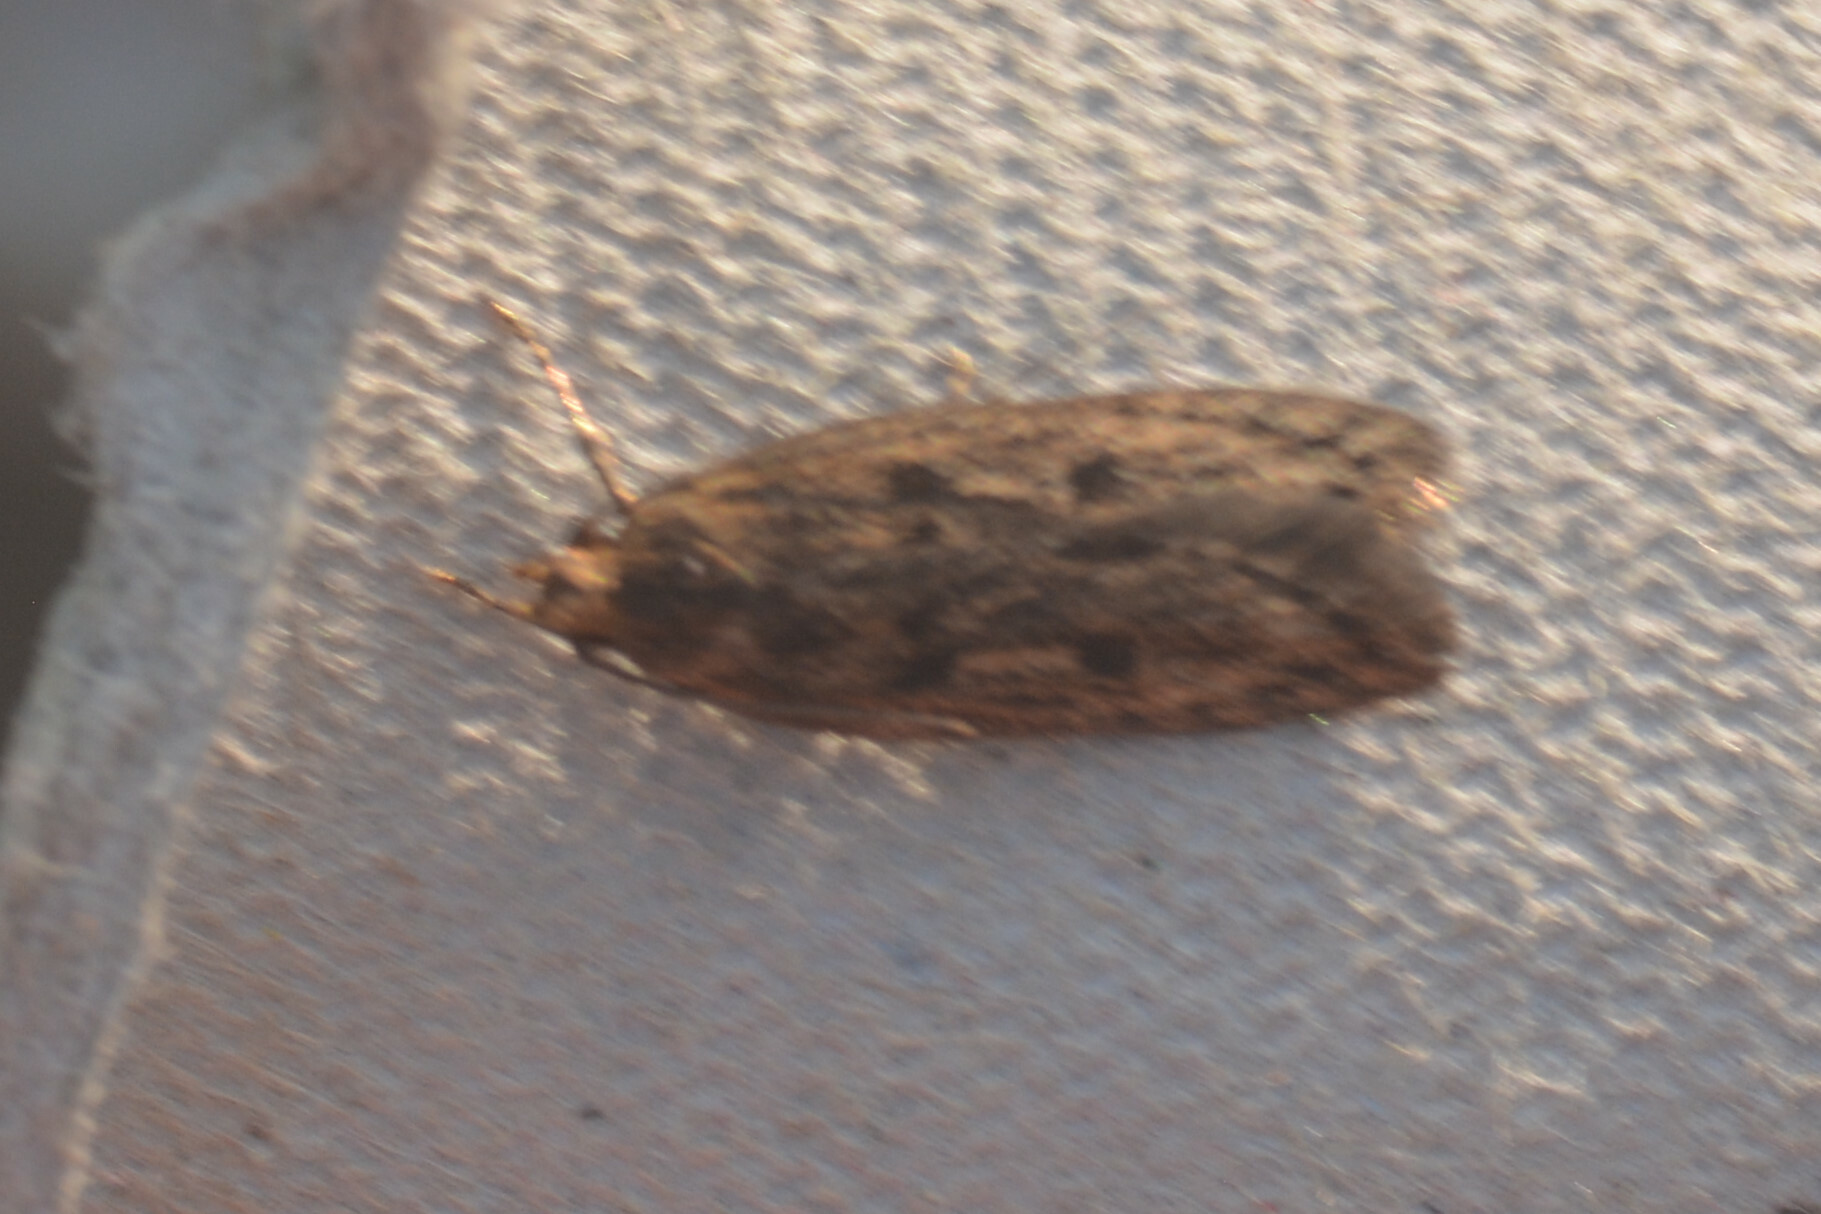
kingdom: Animalia
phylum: Arthropoda
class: Insecta
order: Lepidoptera
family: Oecophoridae
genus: Hofmannophila
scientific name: Hofmannophila pseudospretella
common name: Brown house moth
